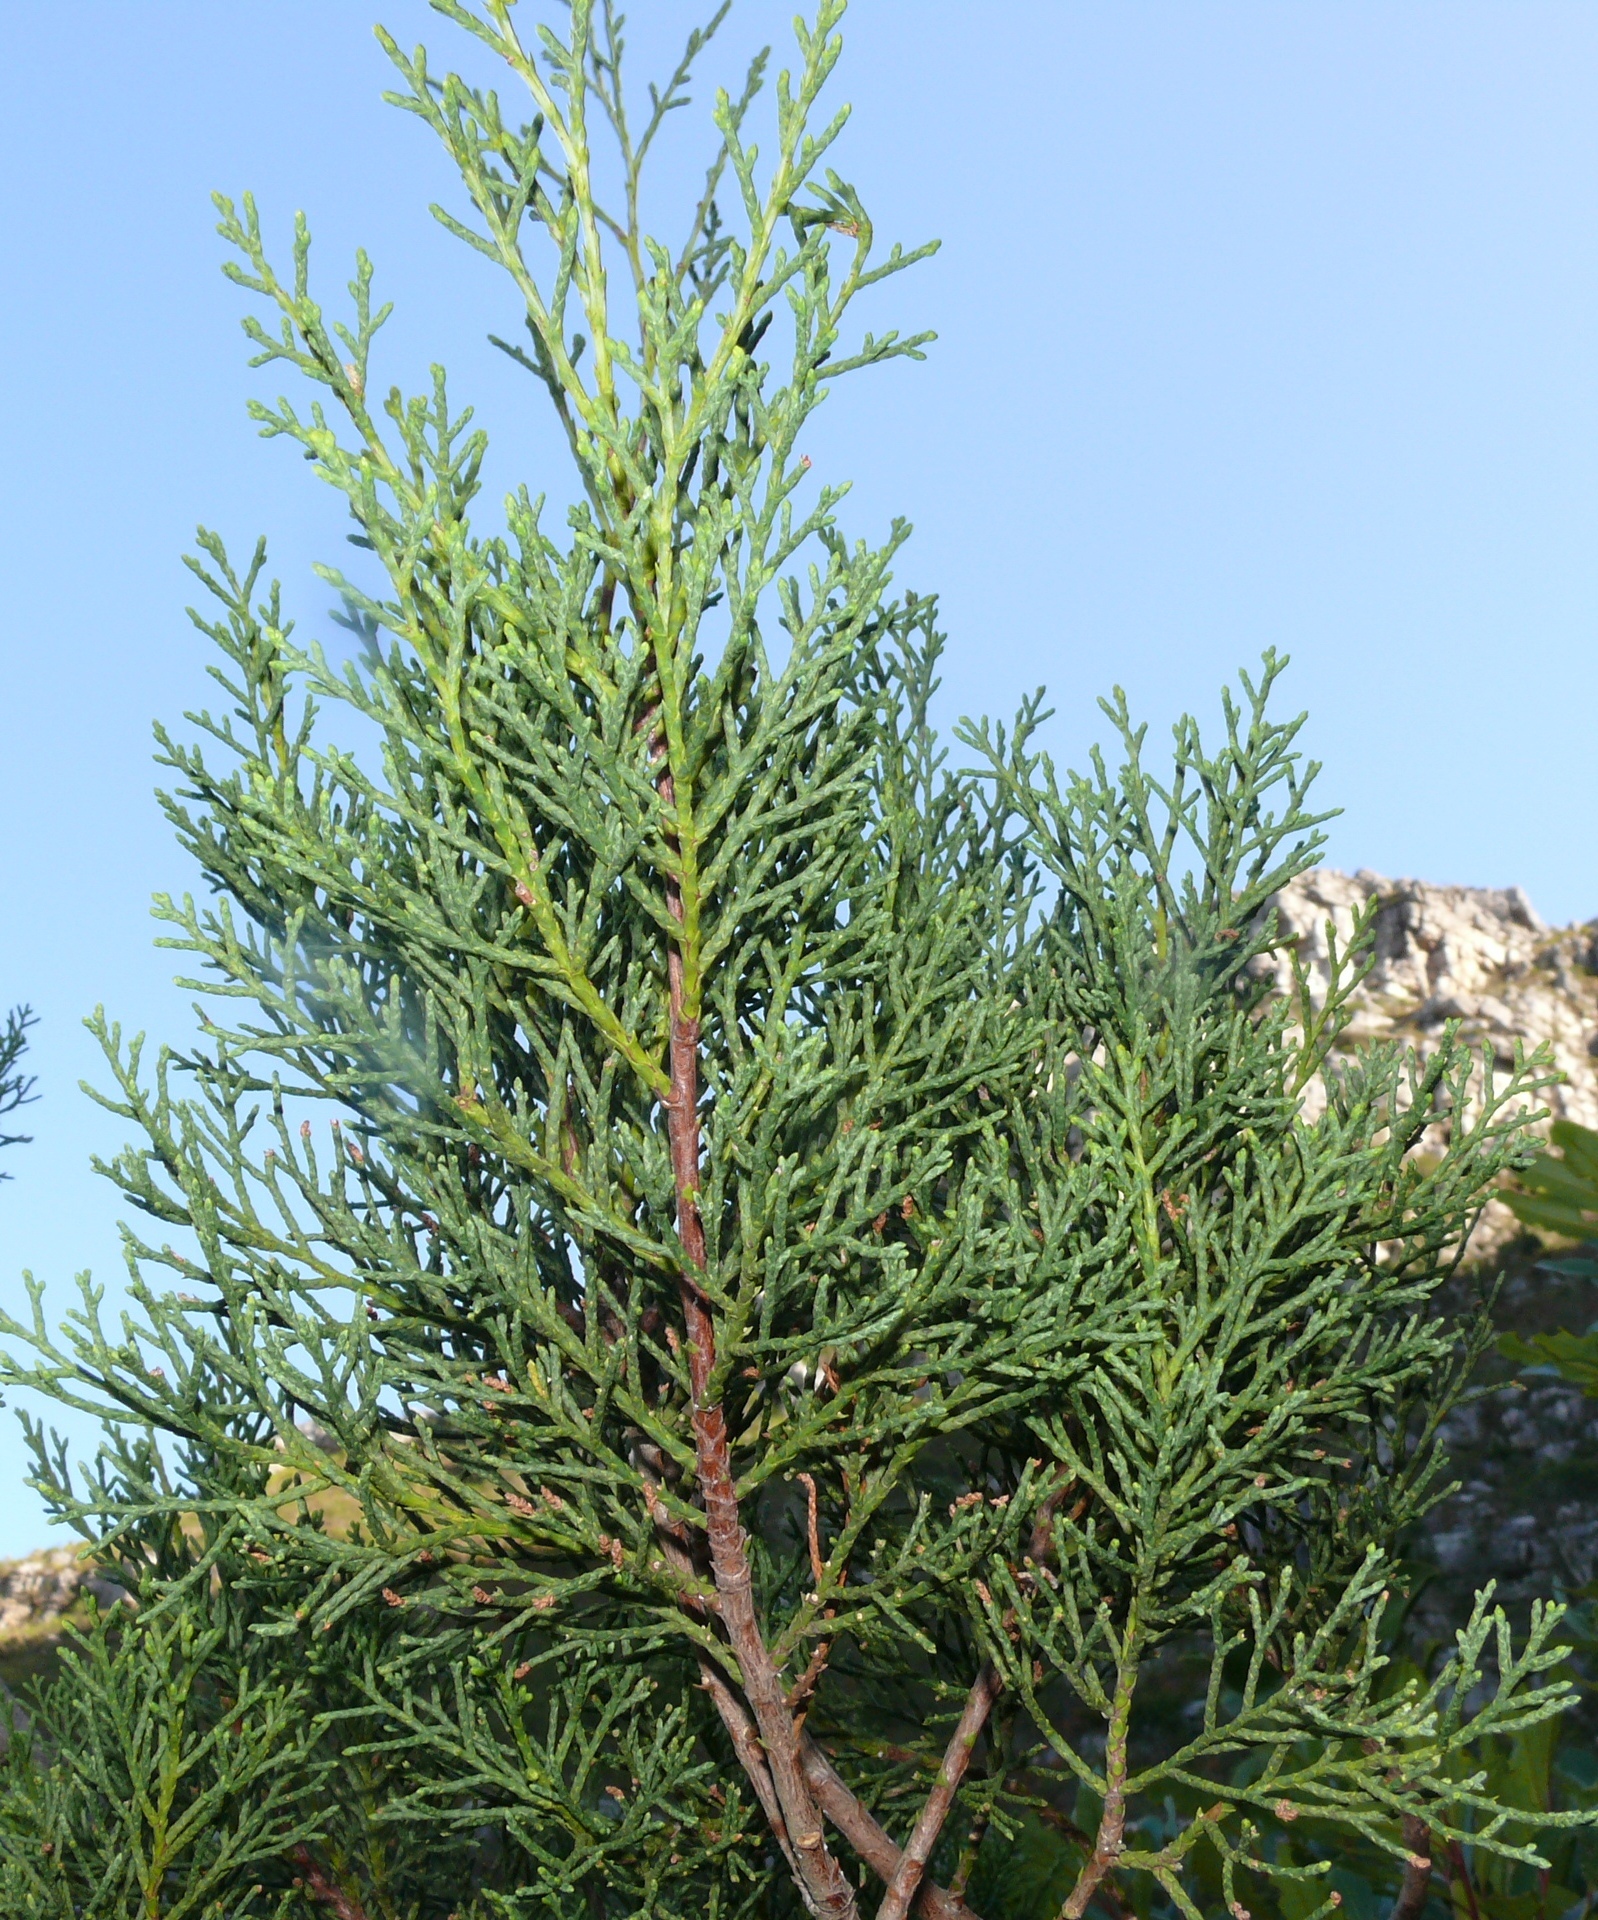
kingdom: Plantae
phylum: Tracheophyta
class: Pinopsida
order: Pinales
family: Cupressaceae
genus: Widdringtonia
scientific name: Widdringtonia nodiflora
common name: Cape cypress
